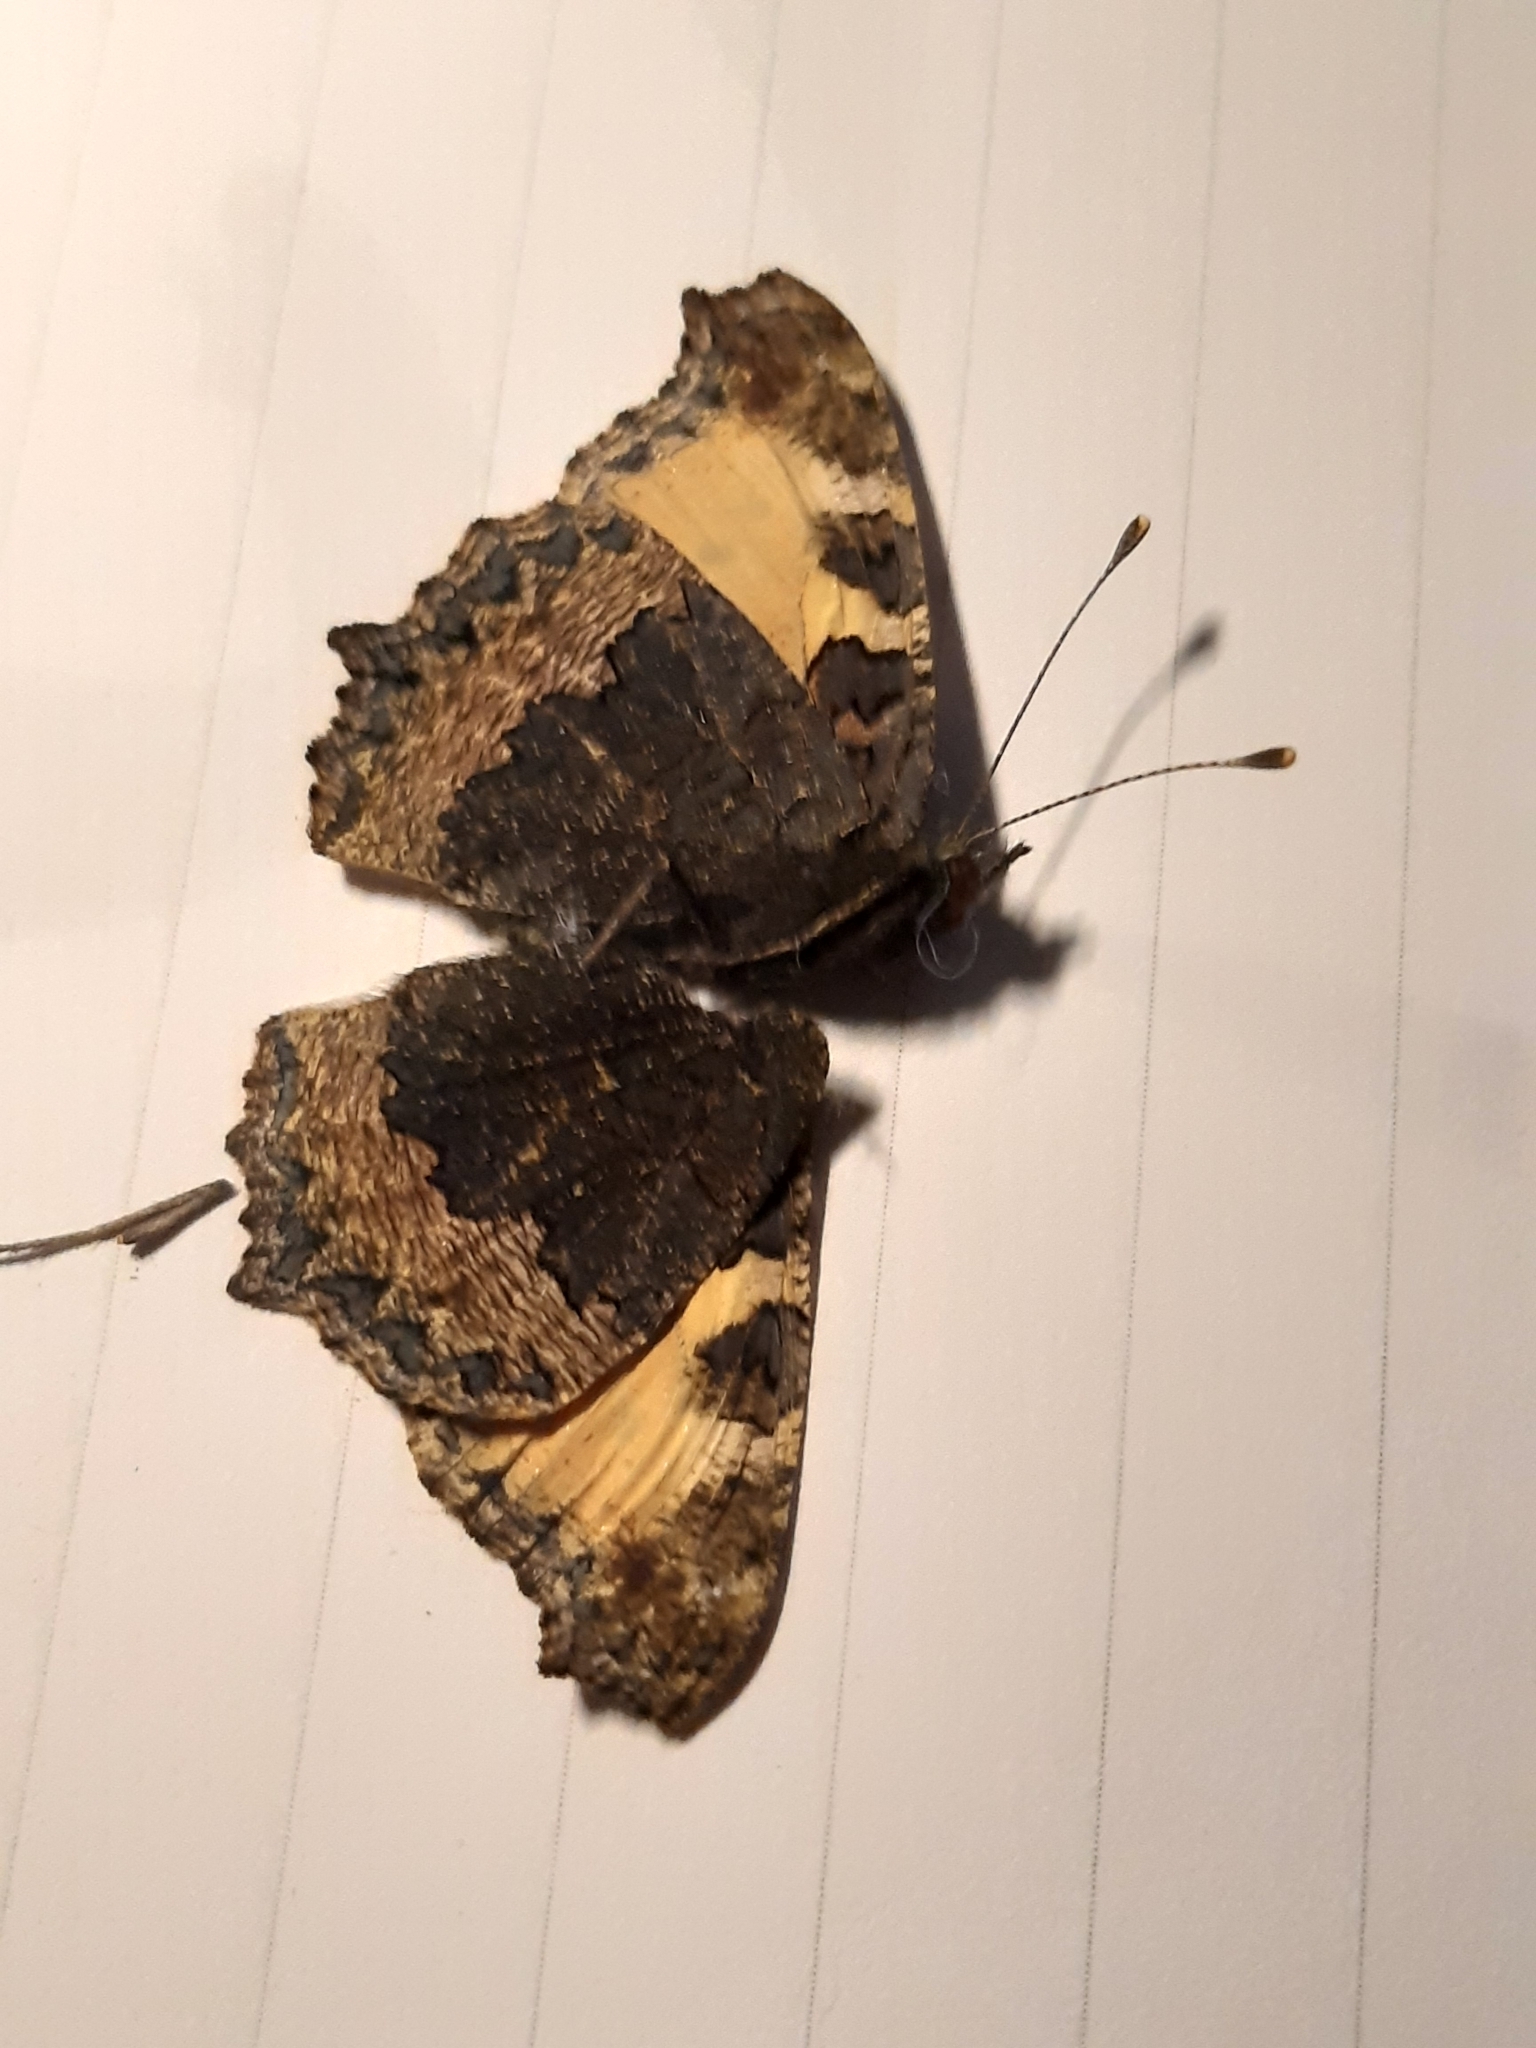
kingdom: Animalia
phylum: Arthropoda
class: Insecta
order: Lepidoptera
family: Nymphalidae
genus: Aglais
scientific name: Aglais urticae
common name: Small tortoiseshell
